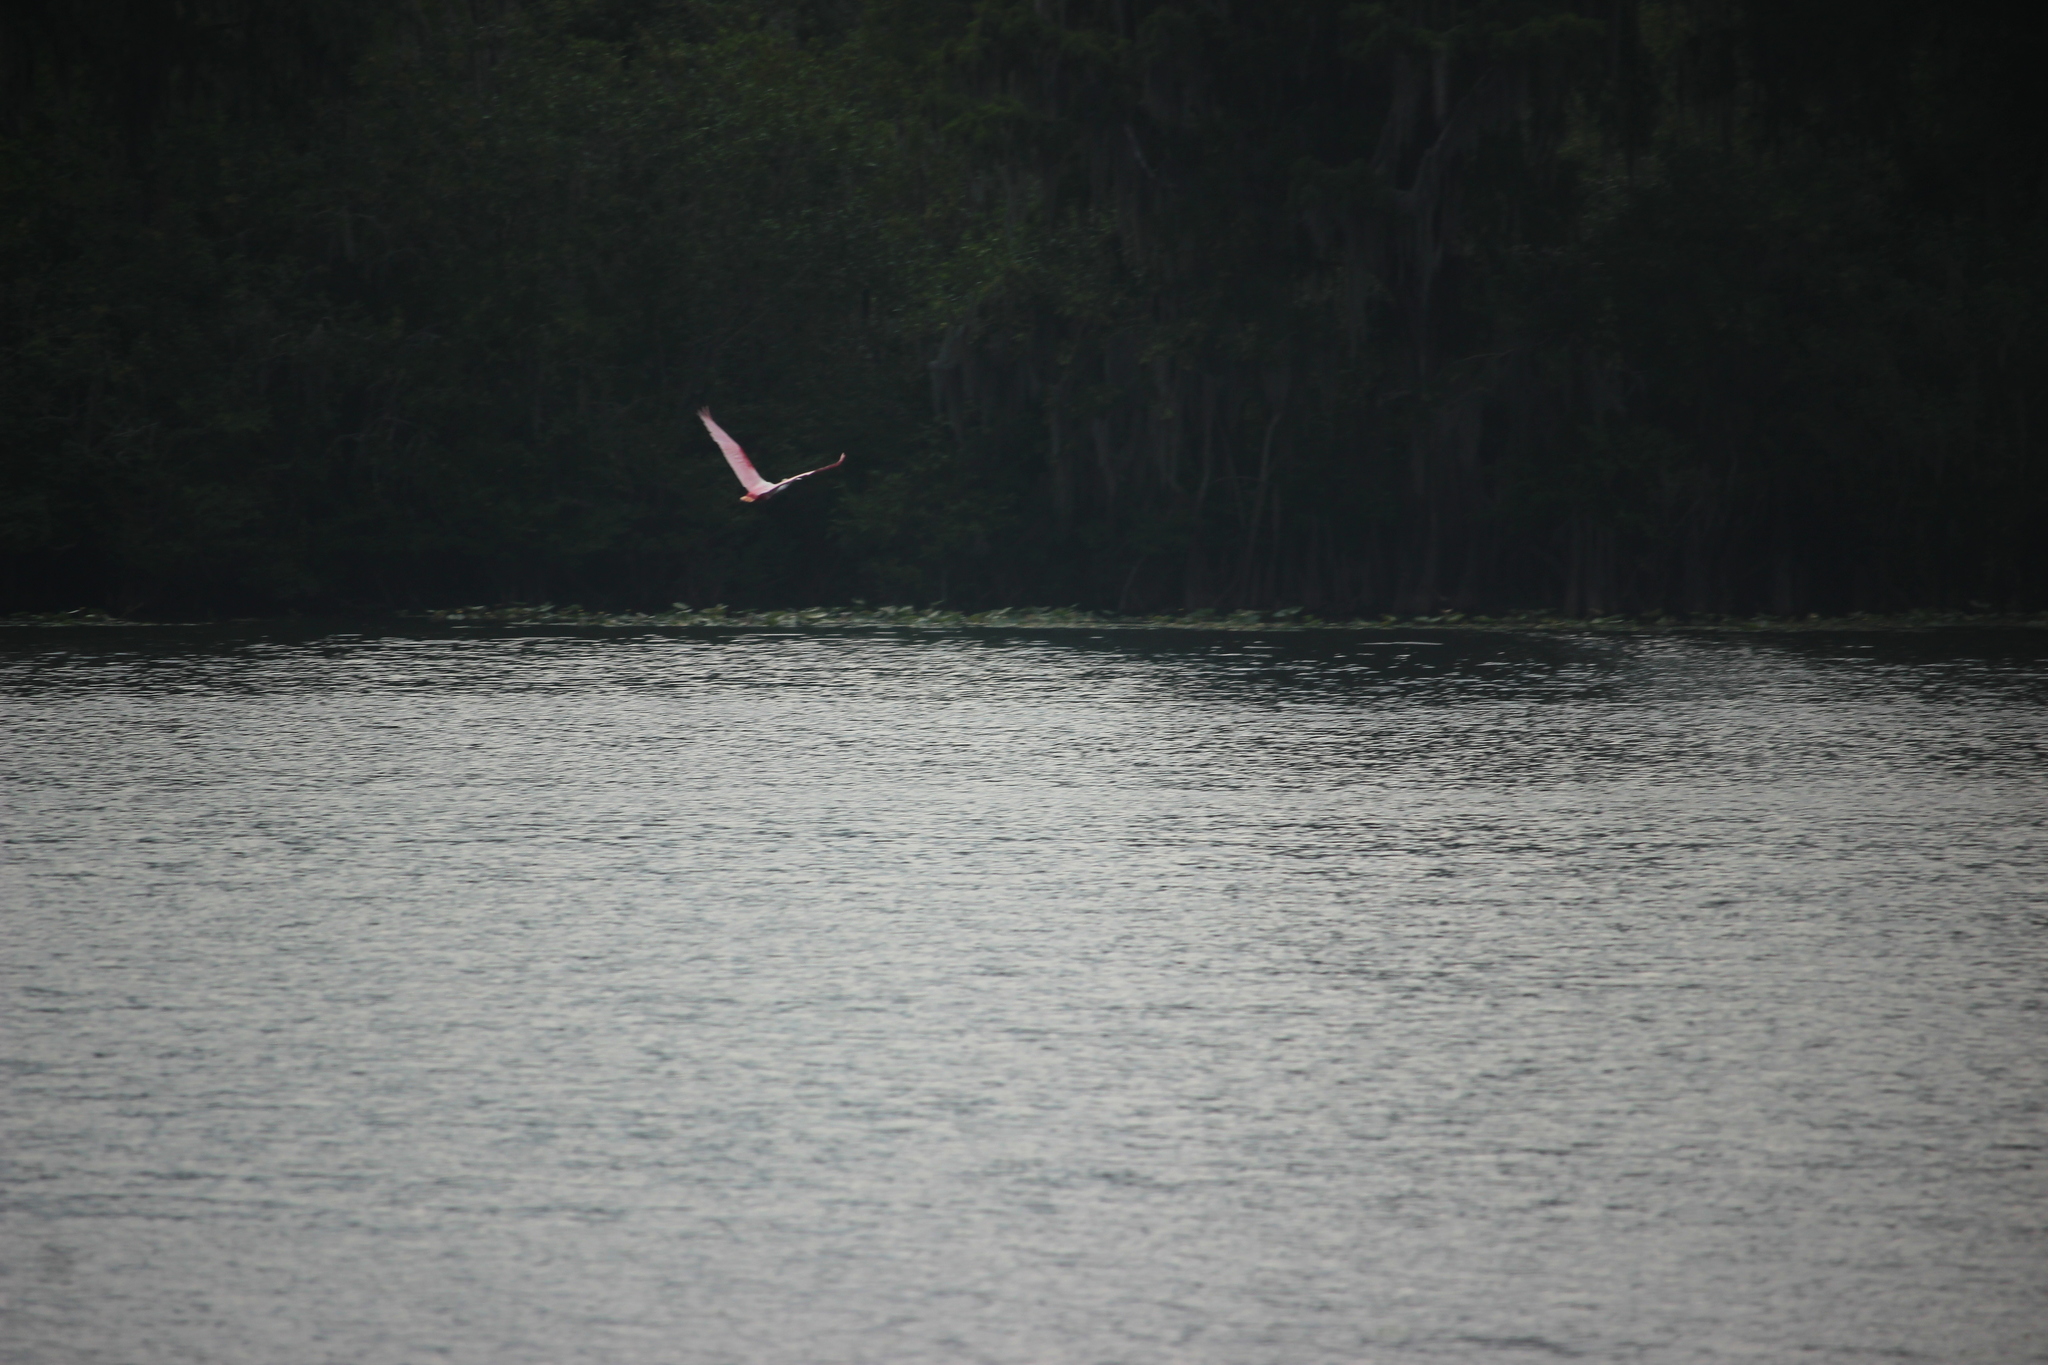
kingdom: Animalia
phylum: Chordata
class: Aves
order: Pelecaniformes
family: Threskiornithidae
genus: Platalea
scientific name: Platalea ajaja
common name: Roseate spoonbill
